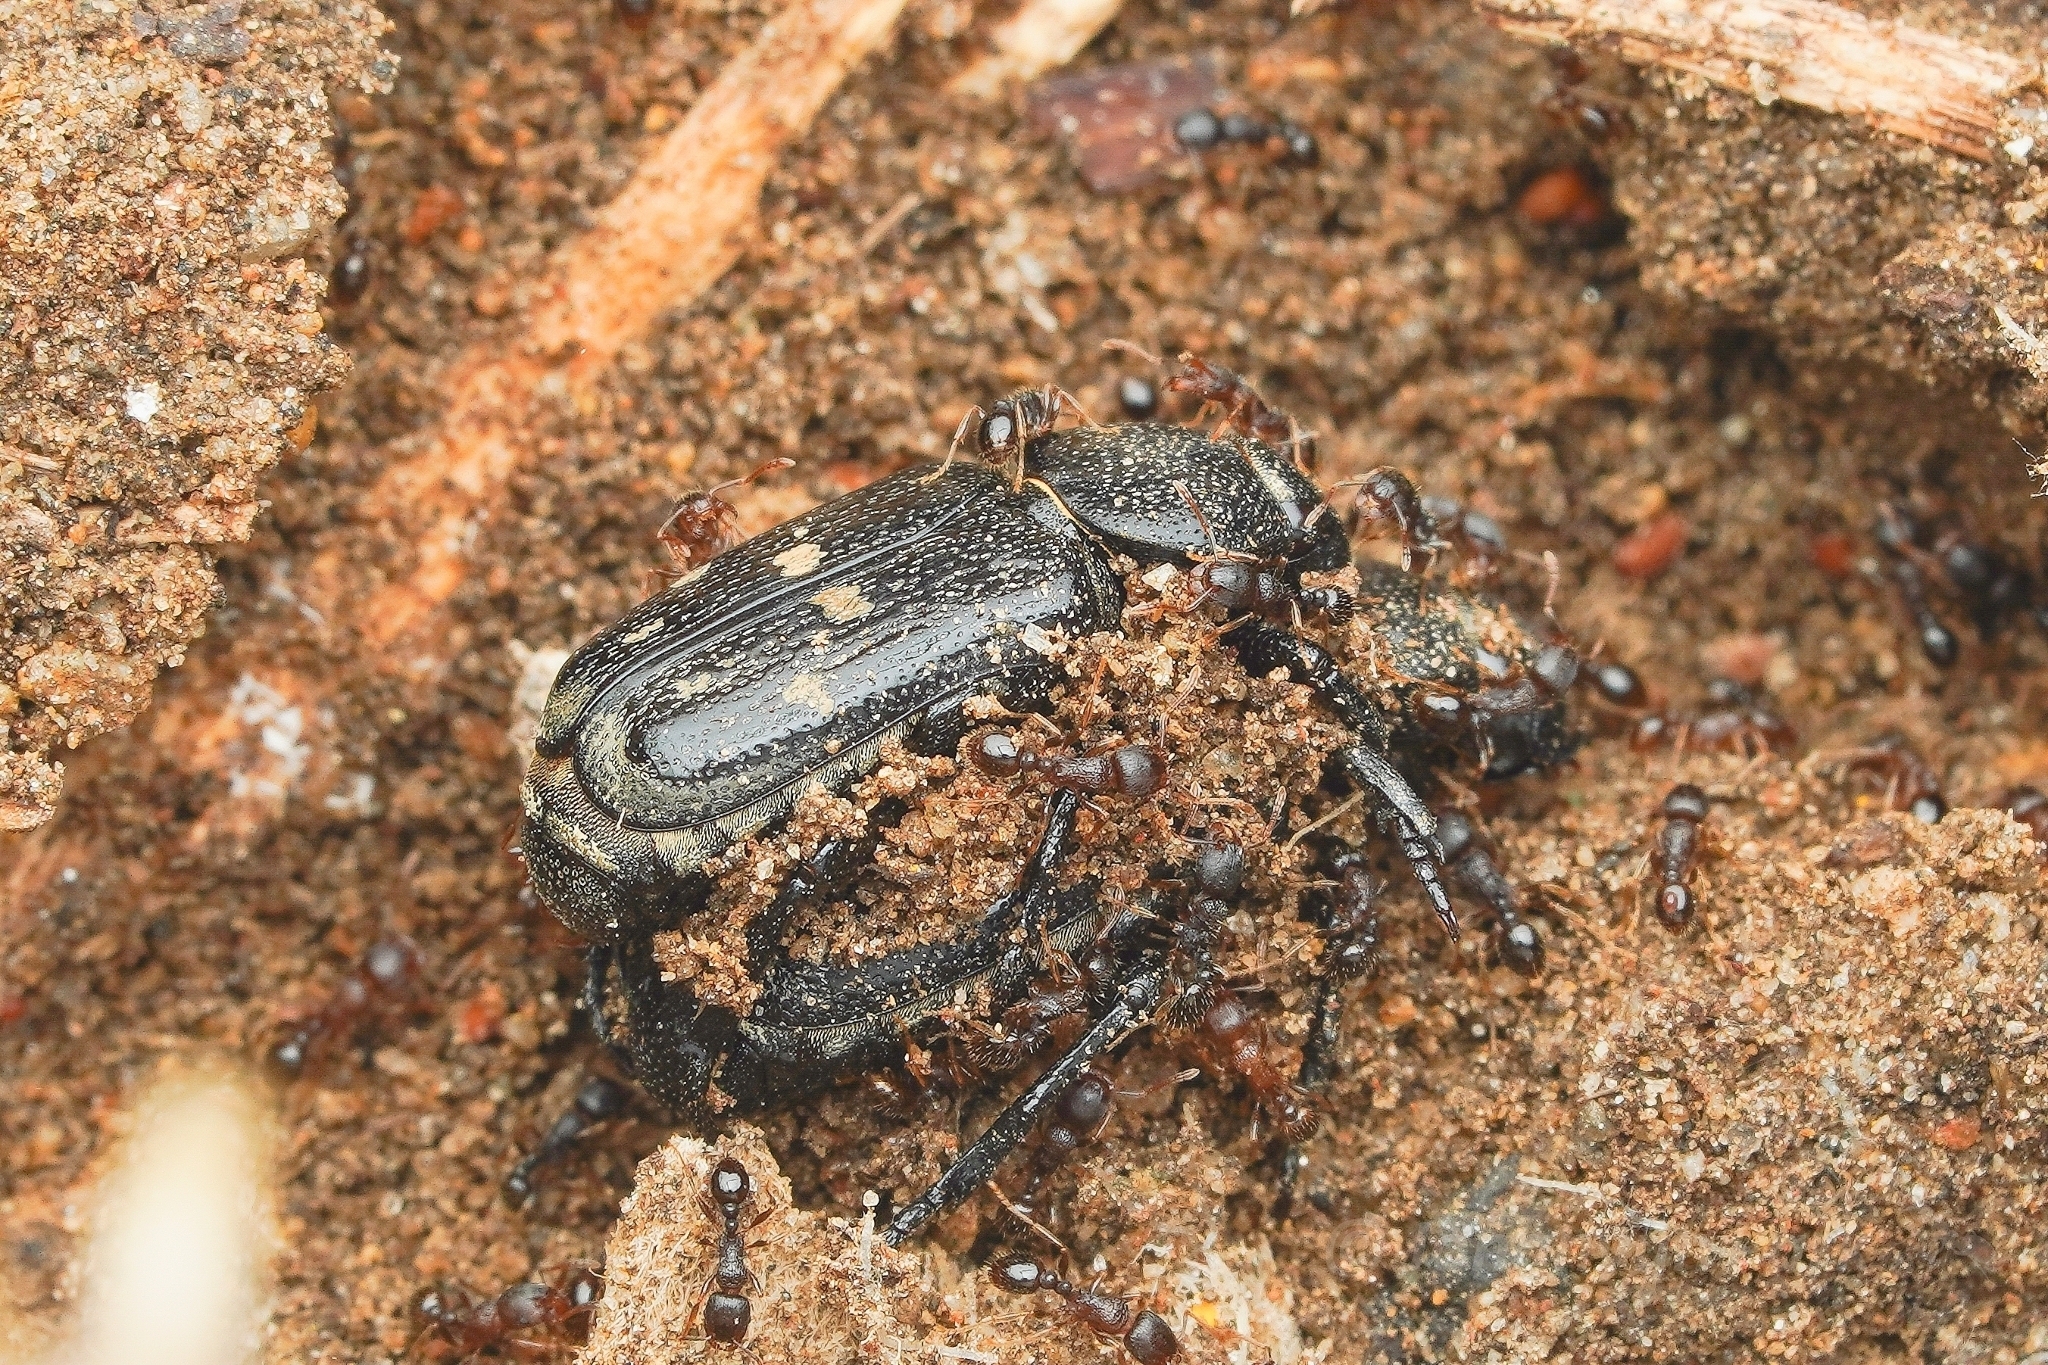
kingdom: Animalia
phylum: Arthropoda
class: Insecta
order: Hymenoptera
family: Formicidae
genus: Tetramorium
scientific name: Tetramorium tsushimae
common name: Ant
